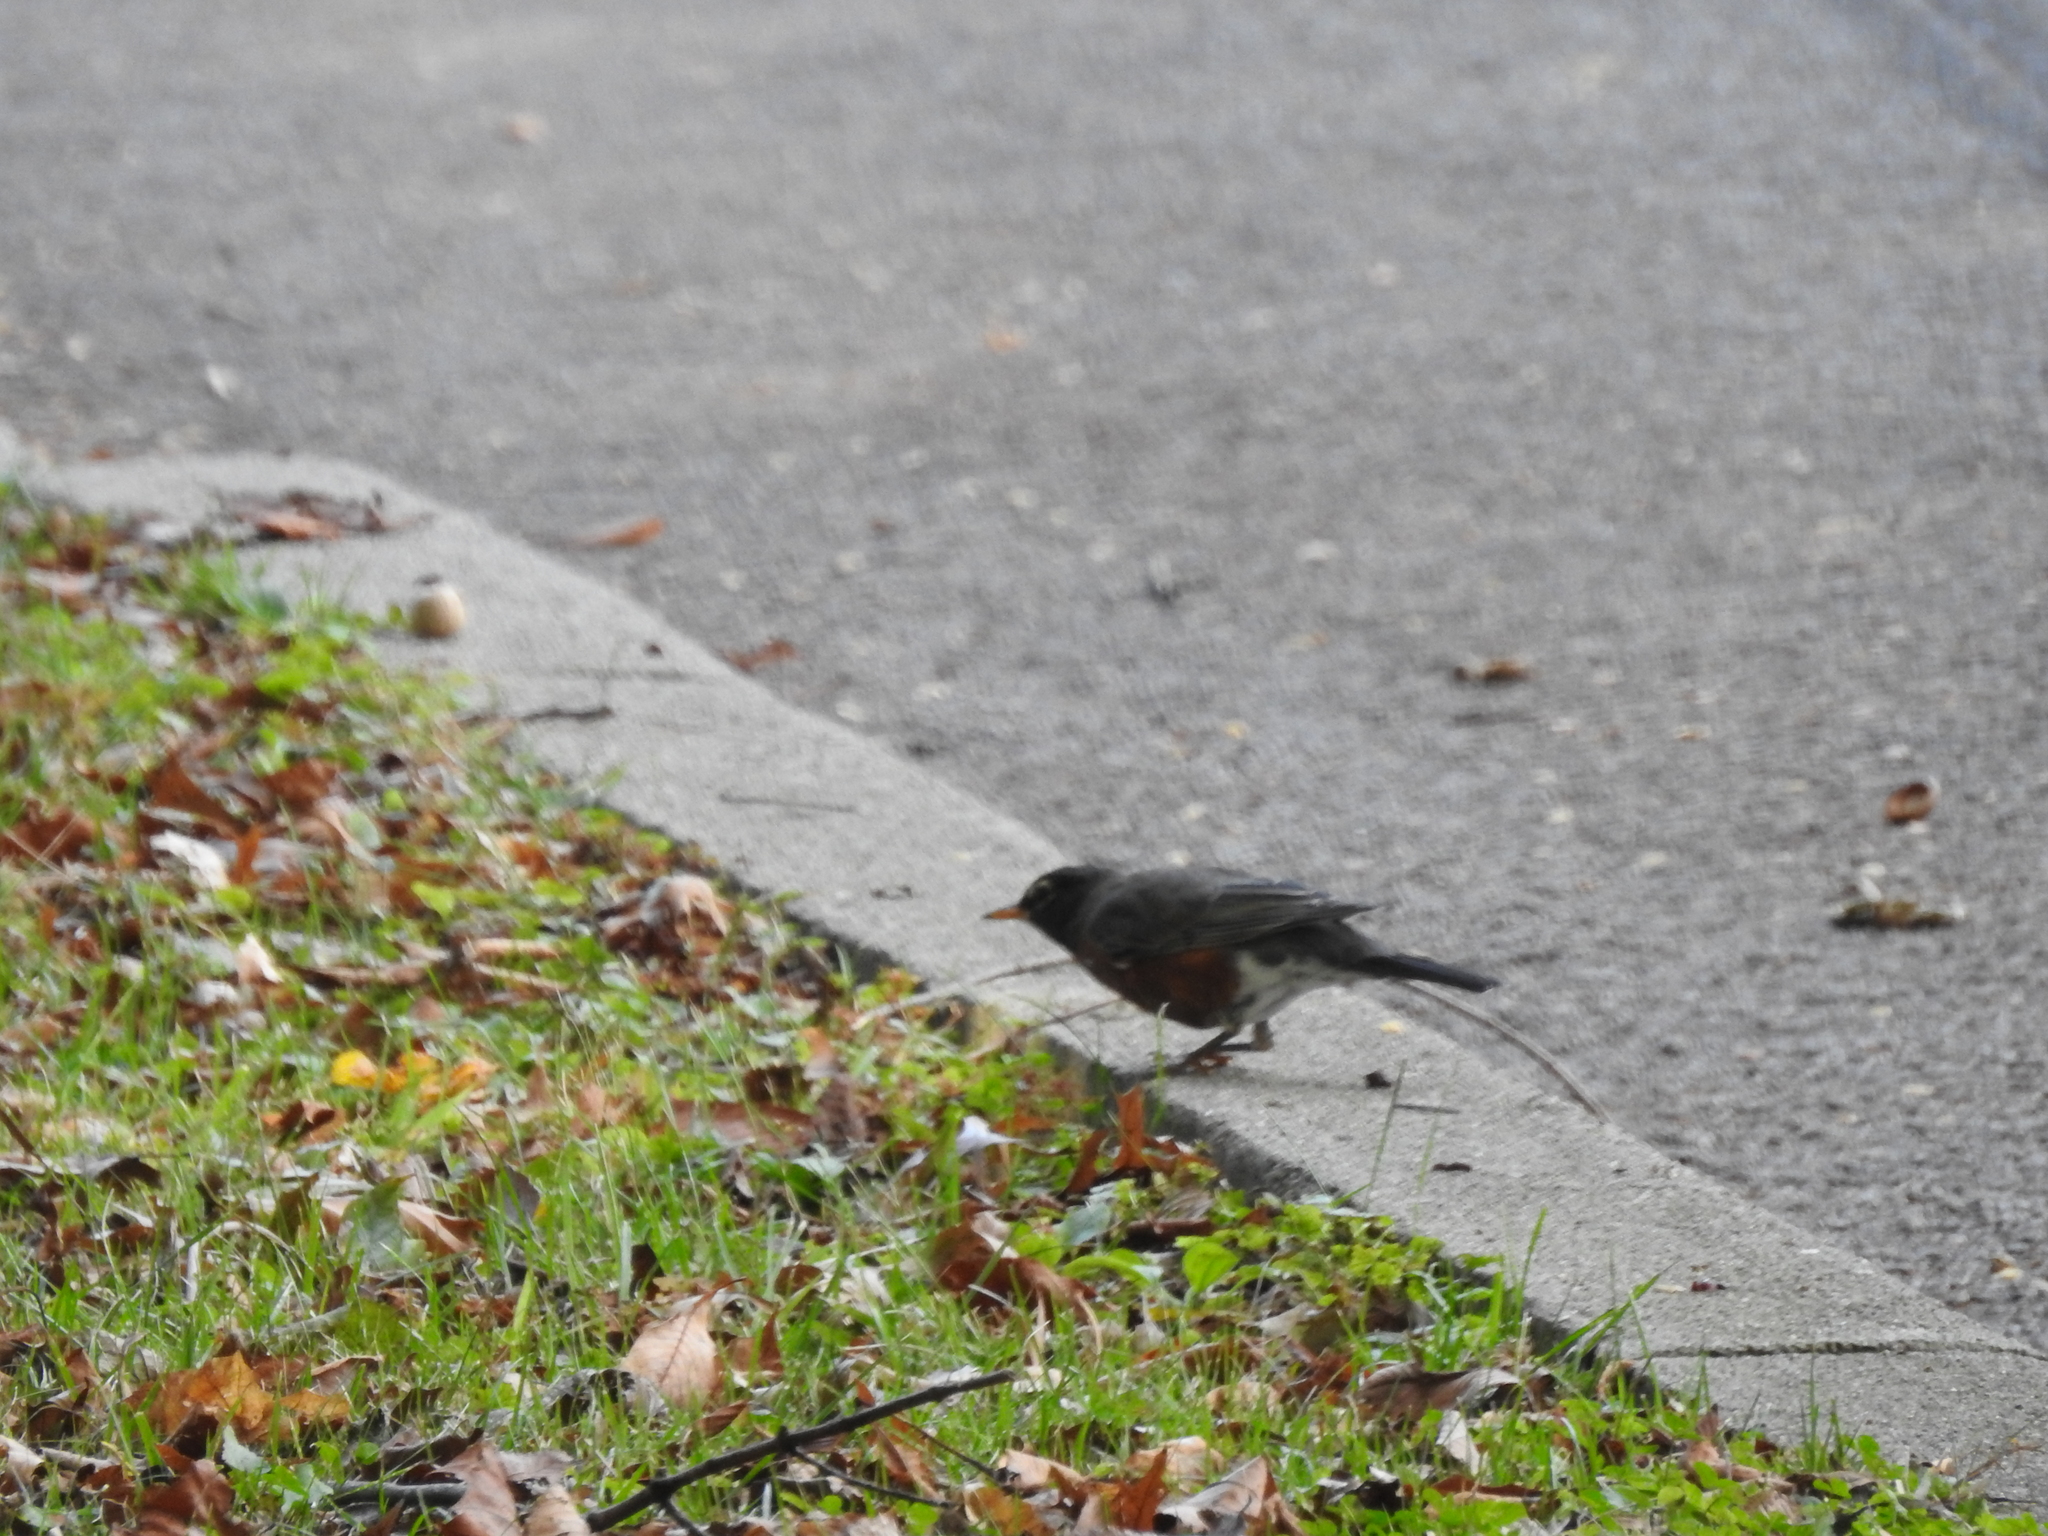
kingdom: Animalia
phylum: Chordata
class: Aves
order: Passeriformes
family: Turdidae
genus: Turdus
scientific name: Turdus migratorius
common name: American robin
